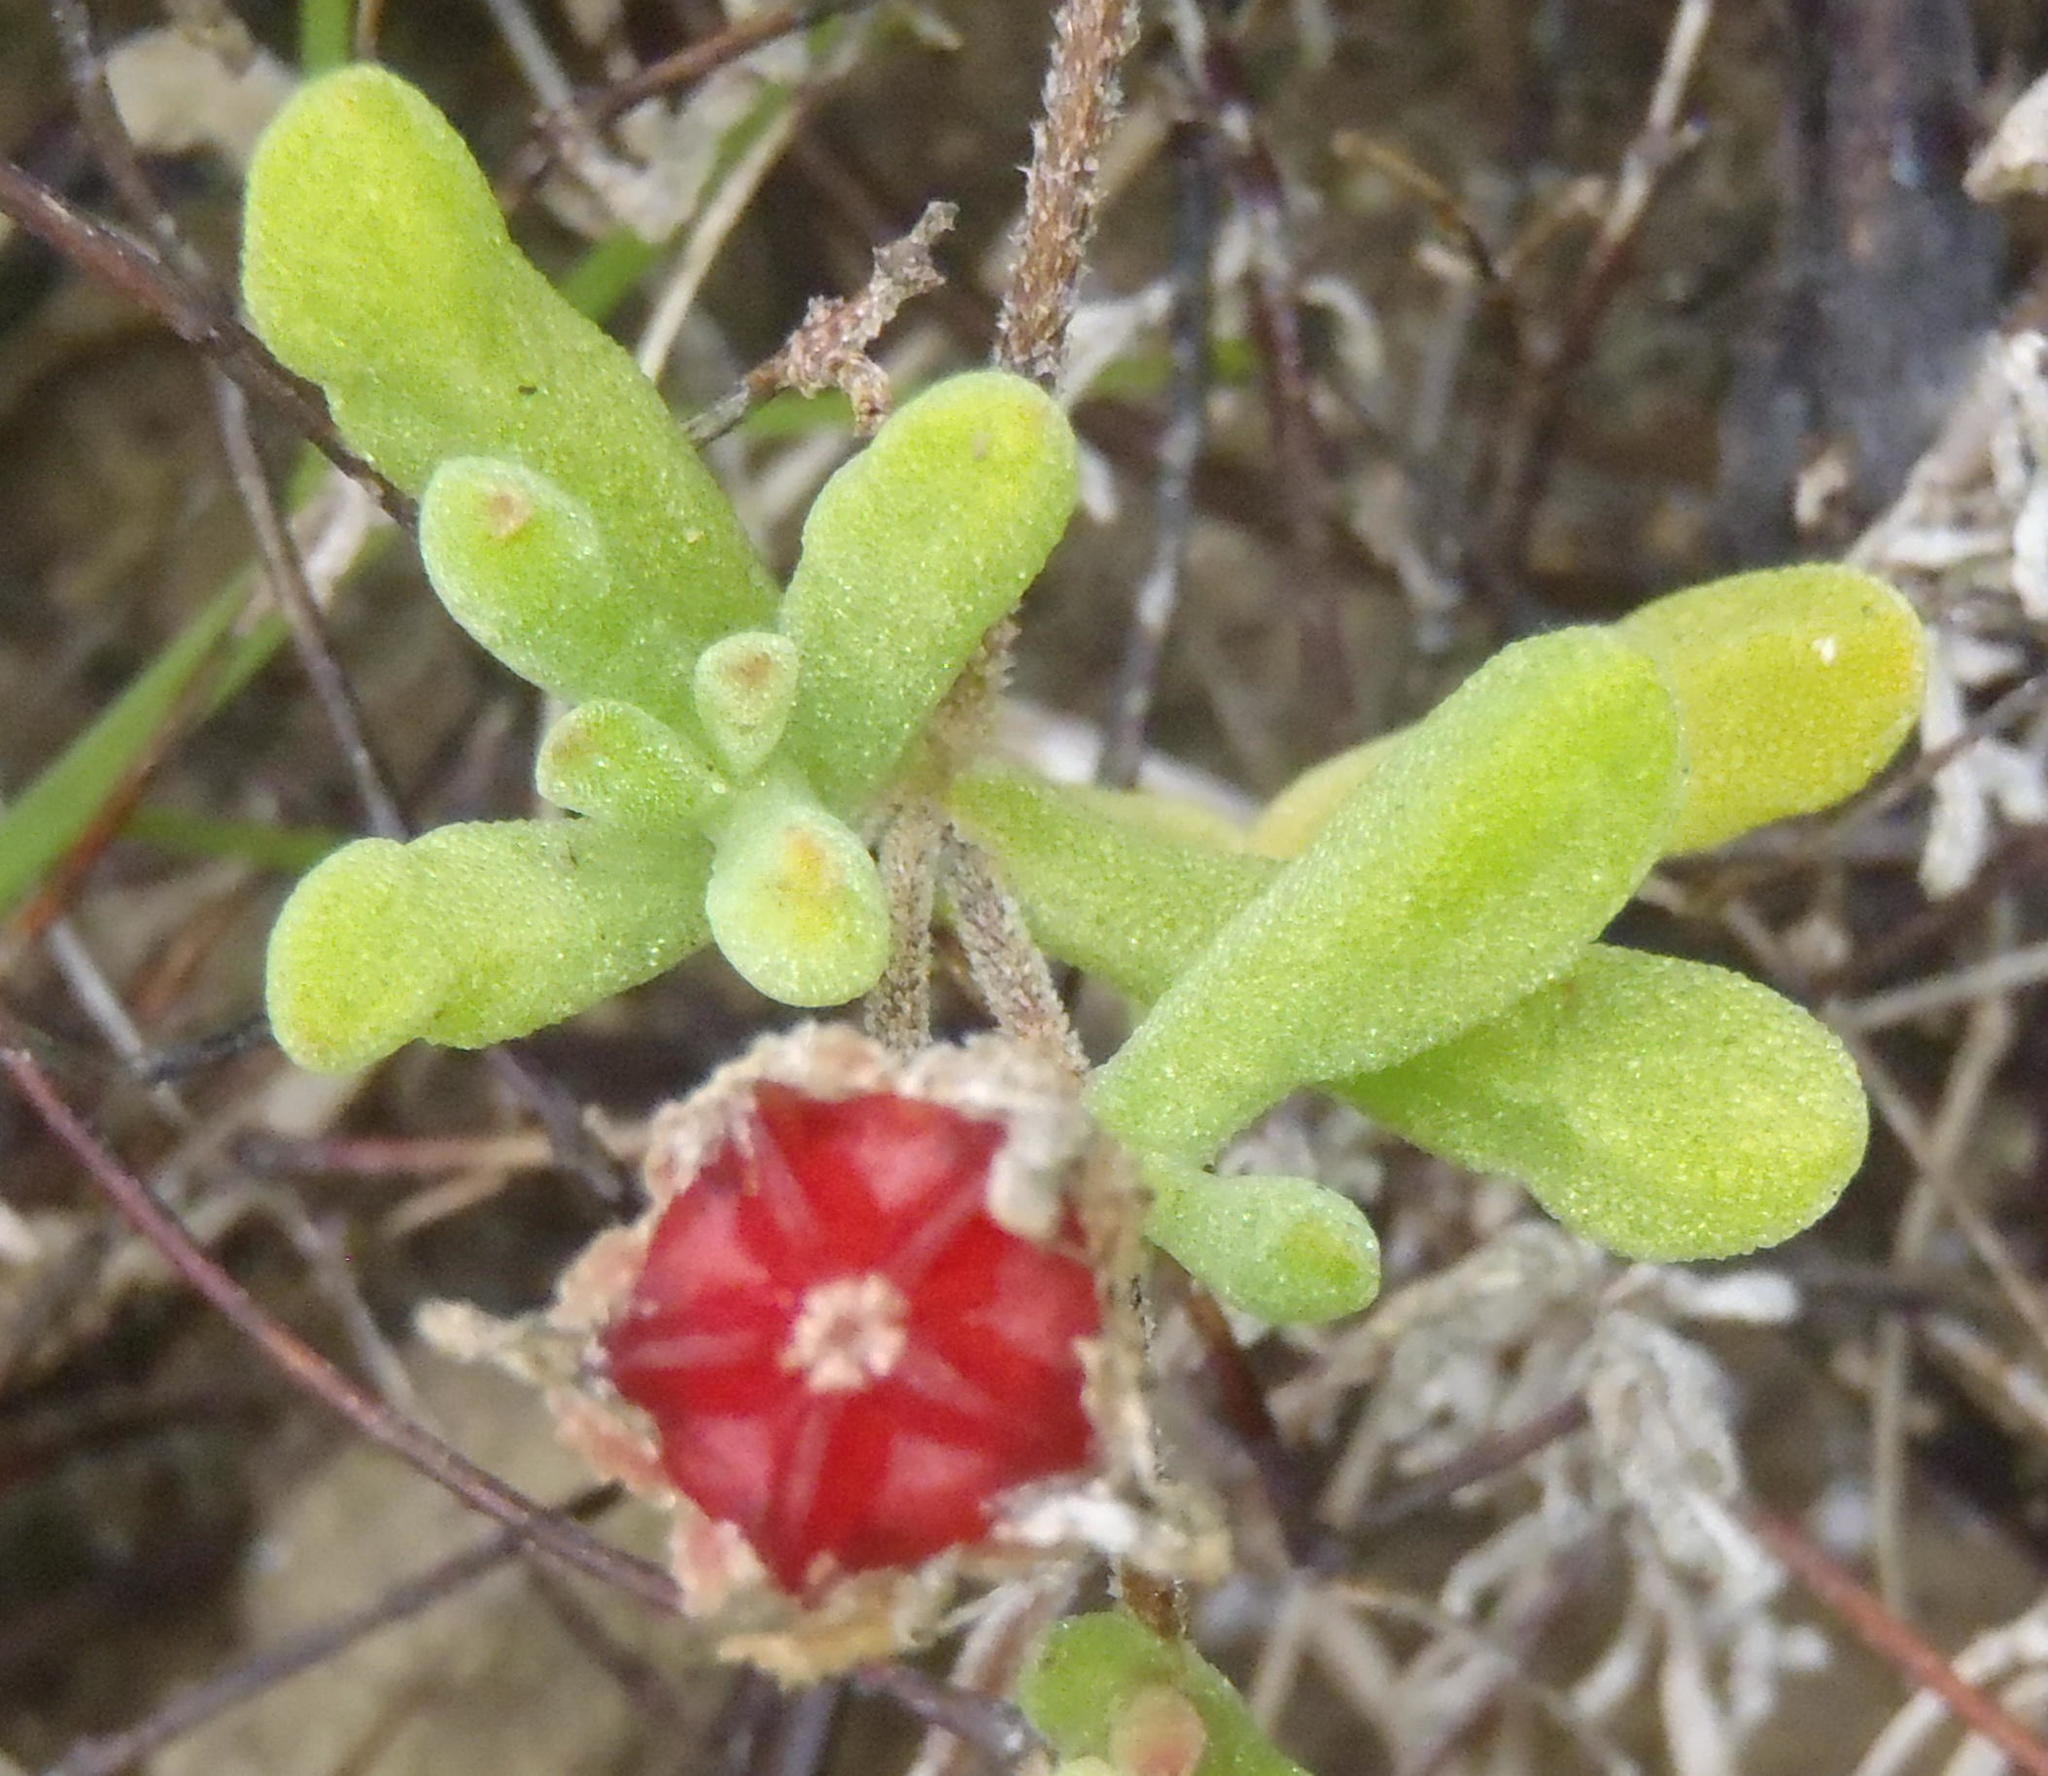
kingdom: Plantae
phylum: Tracheophyta
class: Magnoliopsida
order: Caryophyllales
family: Aizoaceae
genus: Drosanthemum
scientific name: Drosanthemum candens
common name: Rodondo-creeper
